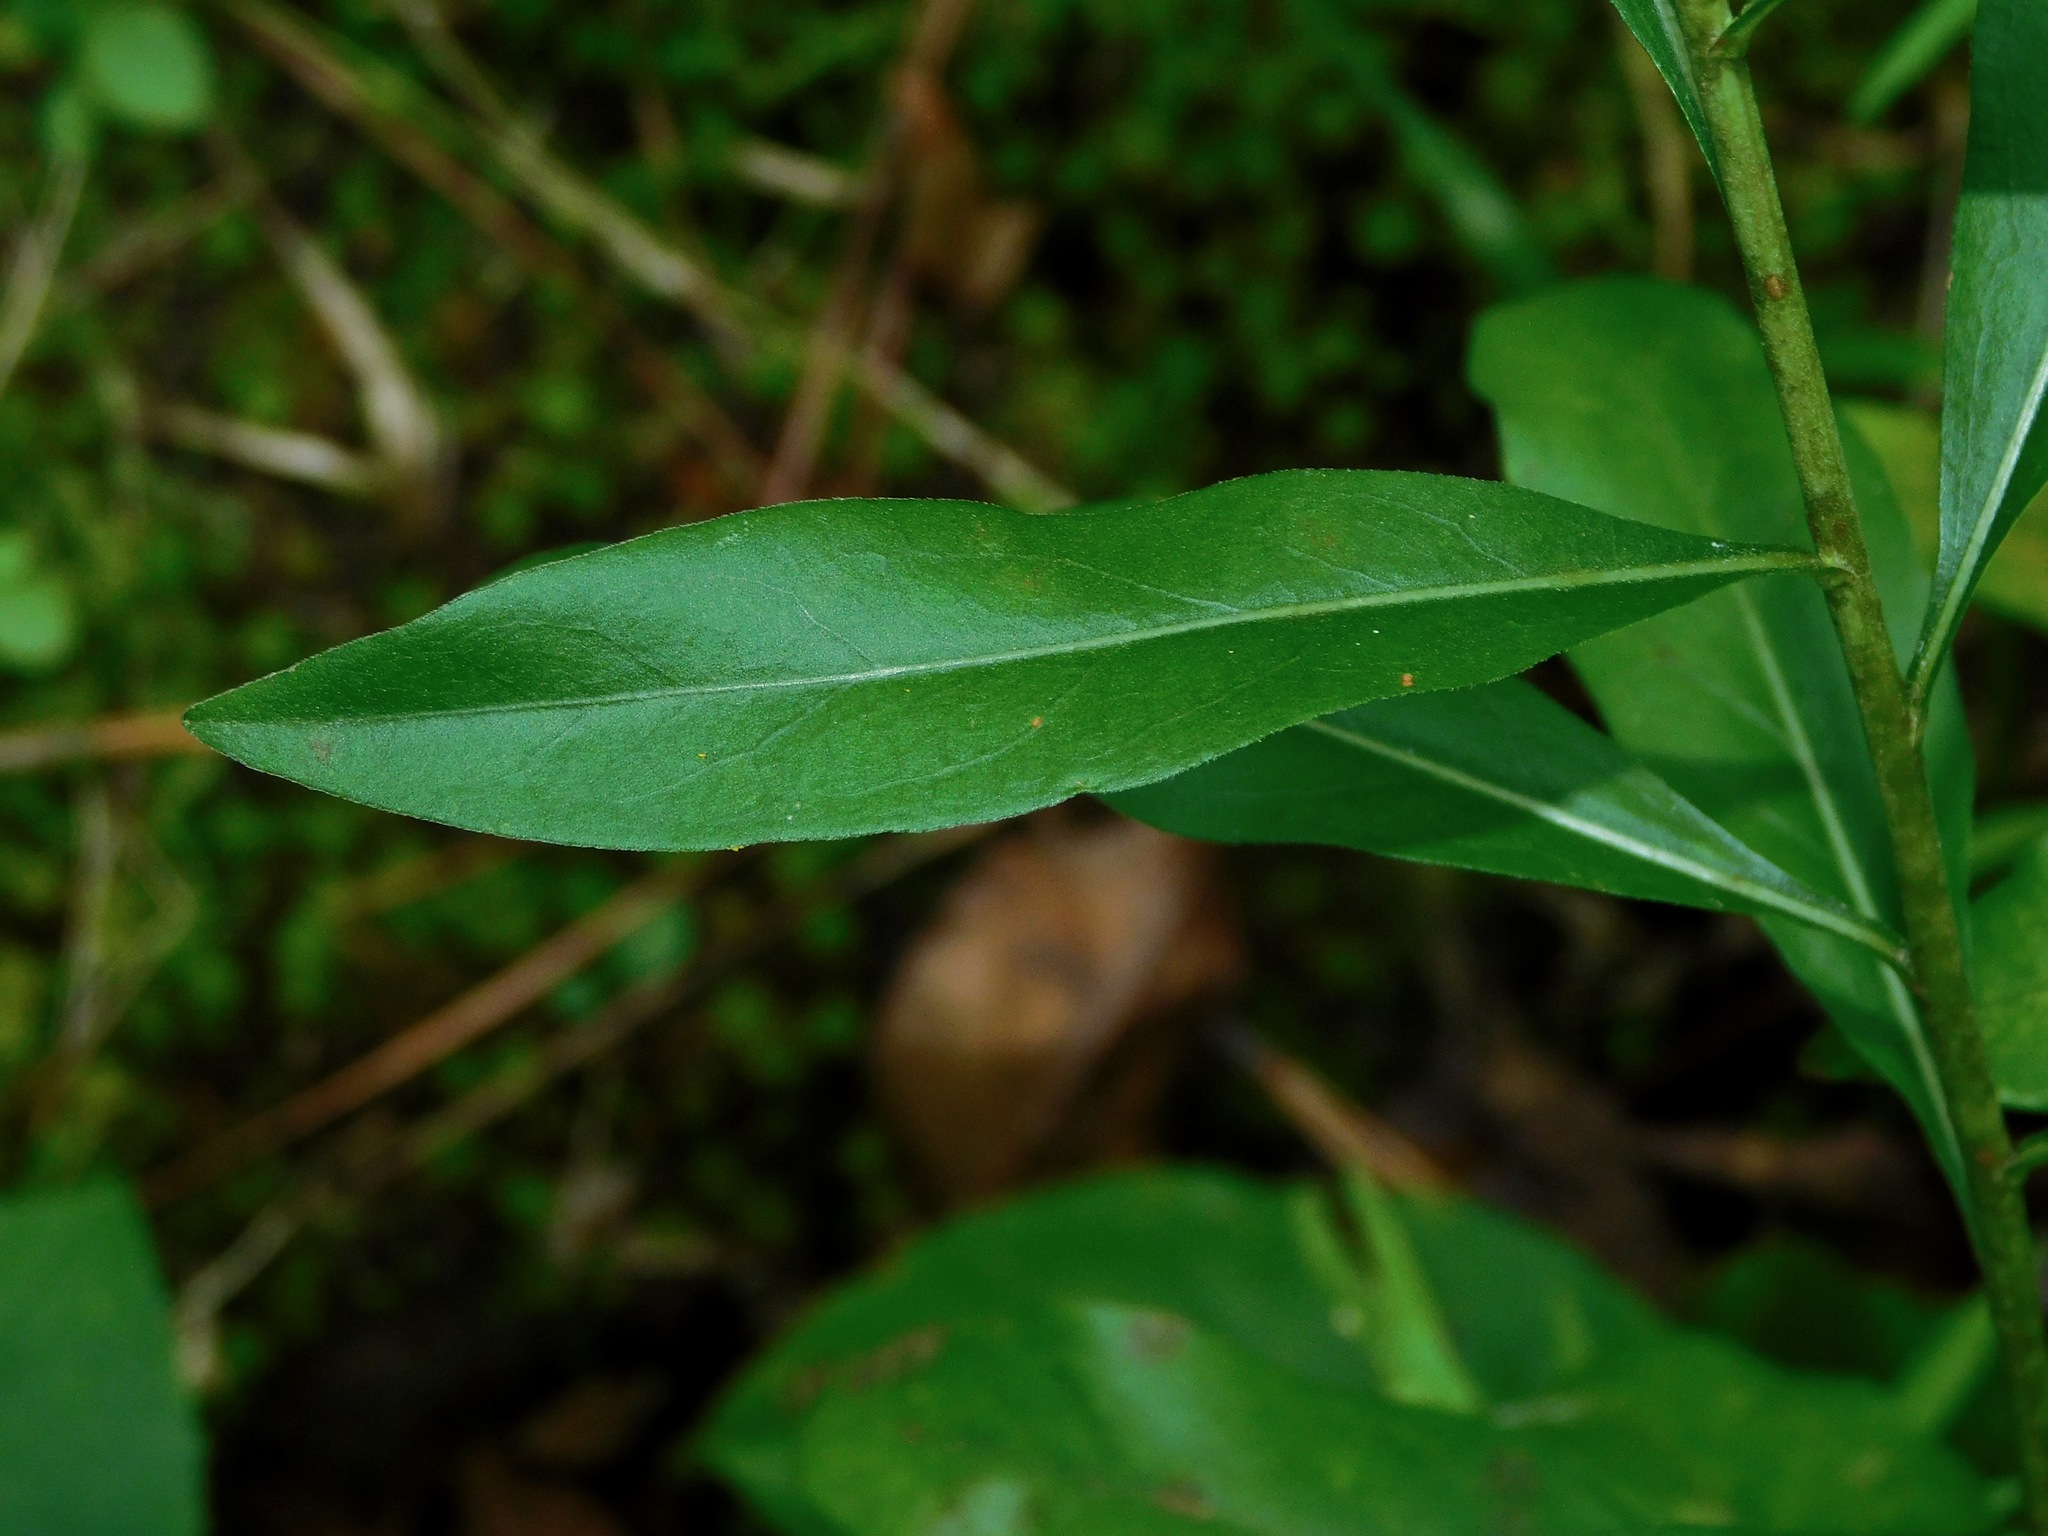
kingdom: Plantae
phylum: Tracheophyta
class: Magnoliopsida
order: Asterales
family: Asteraceae
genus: Solidago
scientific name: Solidago erecta
